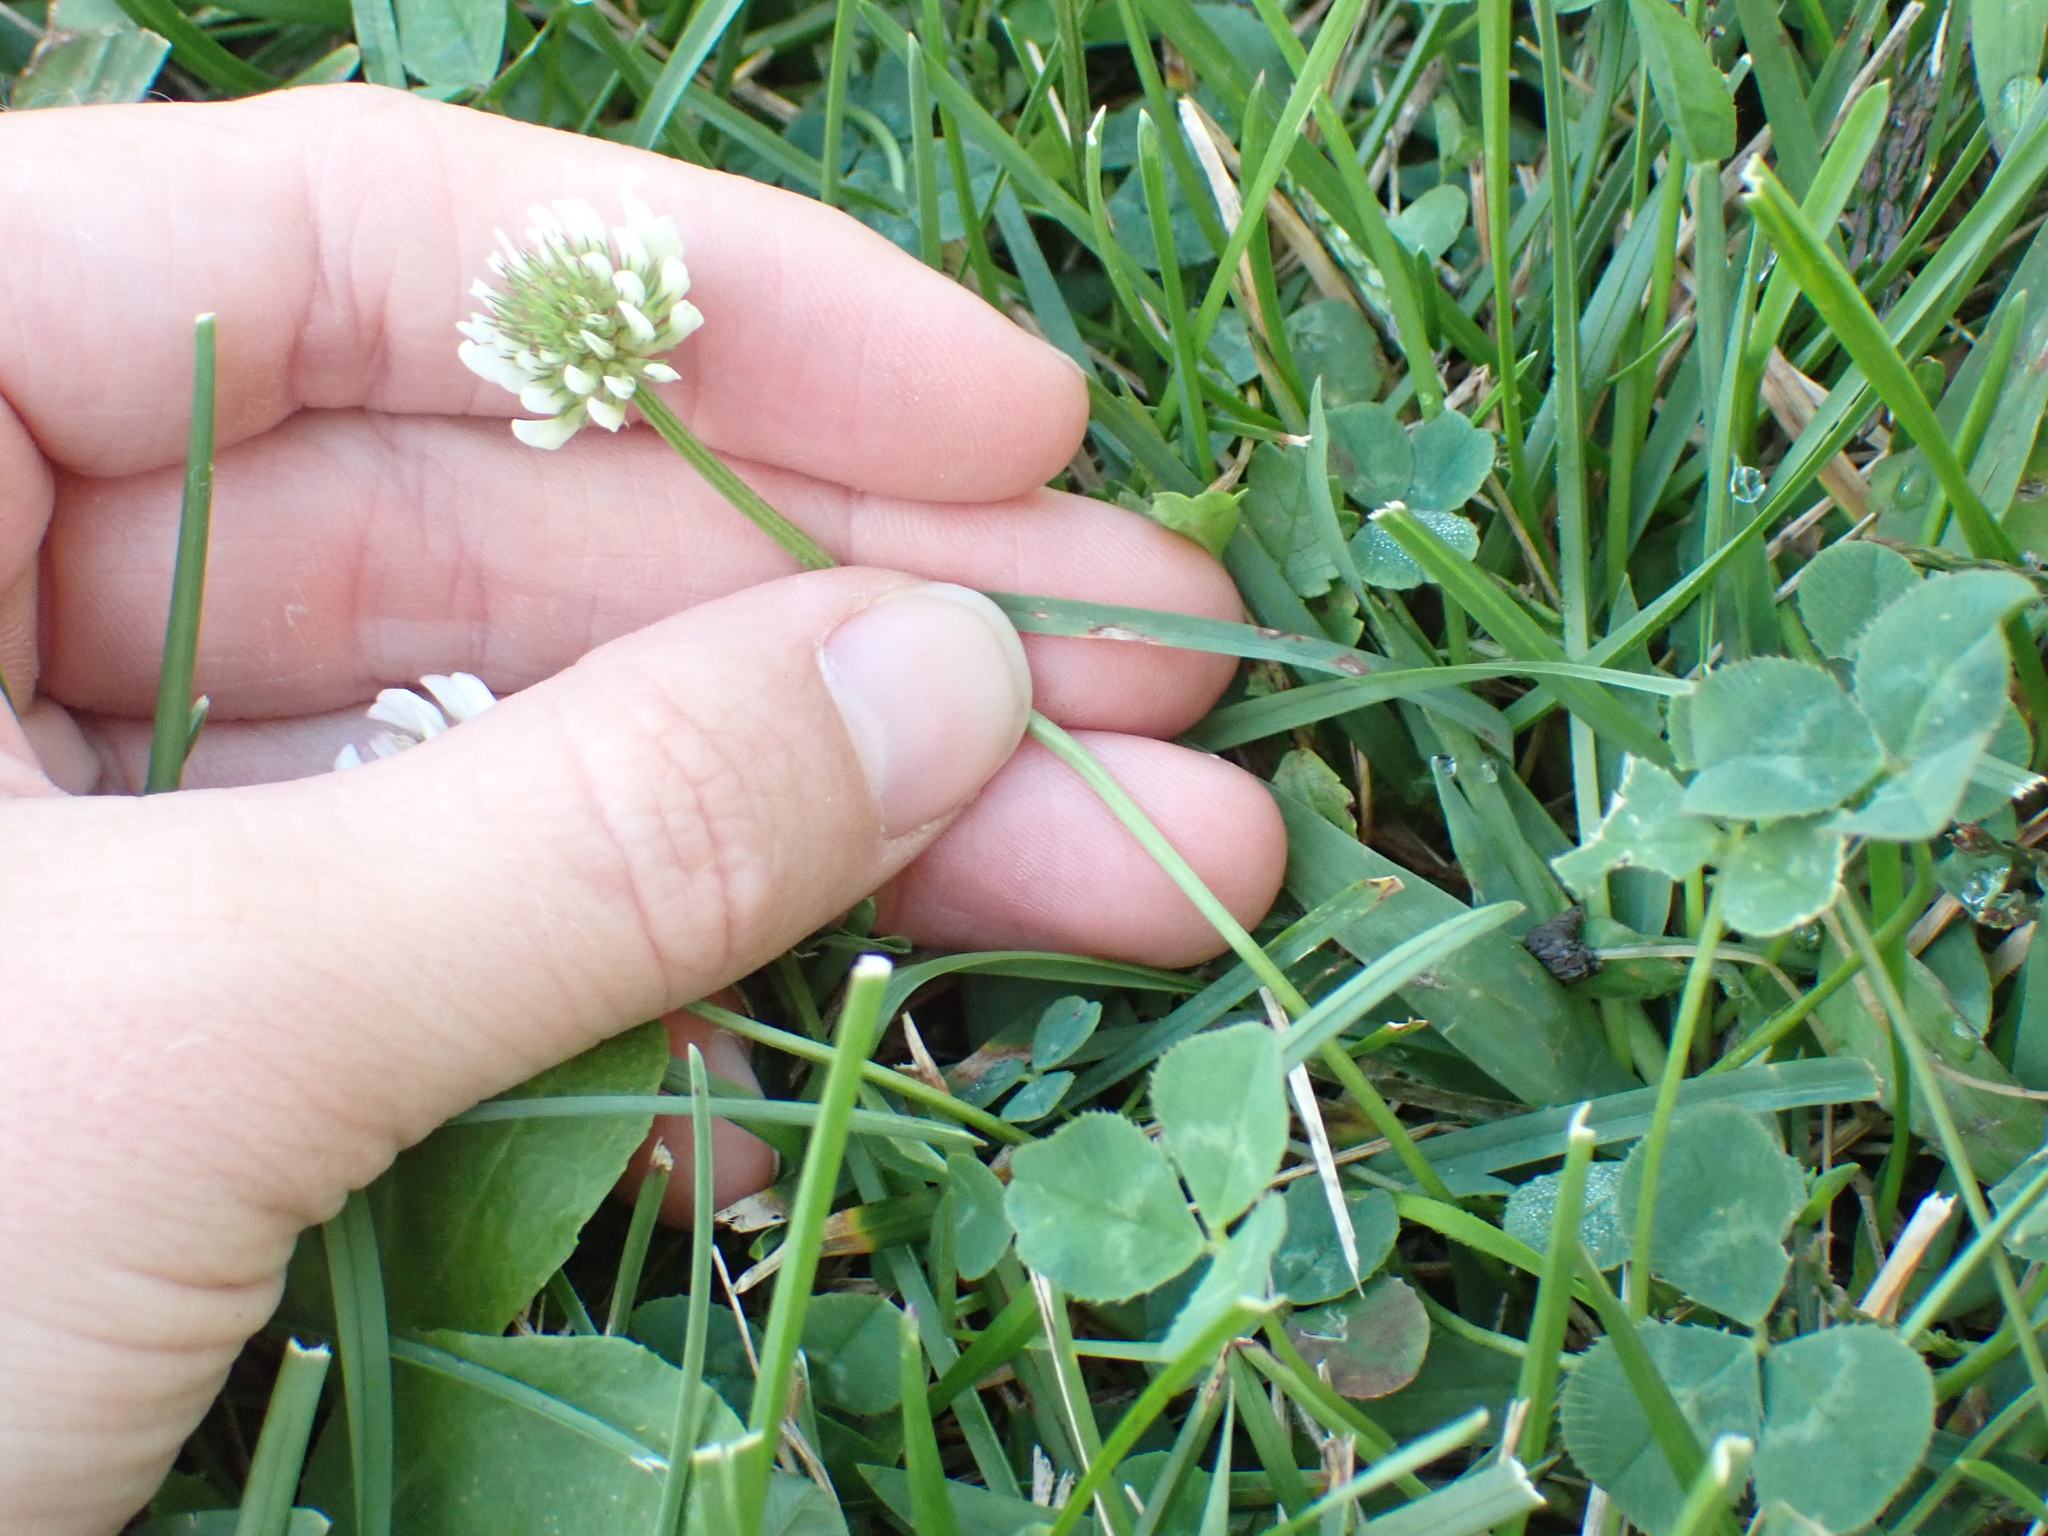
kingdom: Plantae
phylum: Tracheophyta
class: Magnoliopsida
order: Fabales
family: Fabaceae
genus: Trifolium
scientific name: Trifolium repens
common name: White clover
